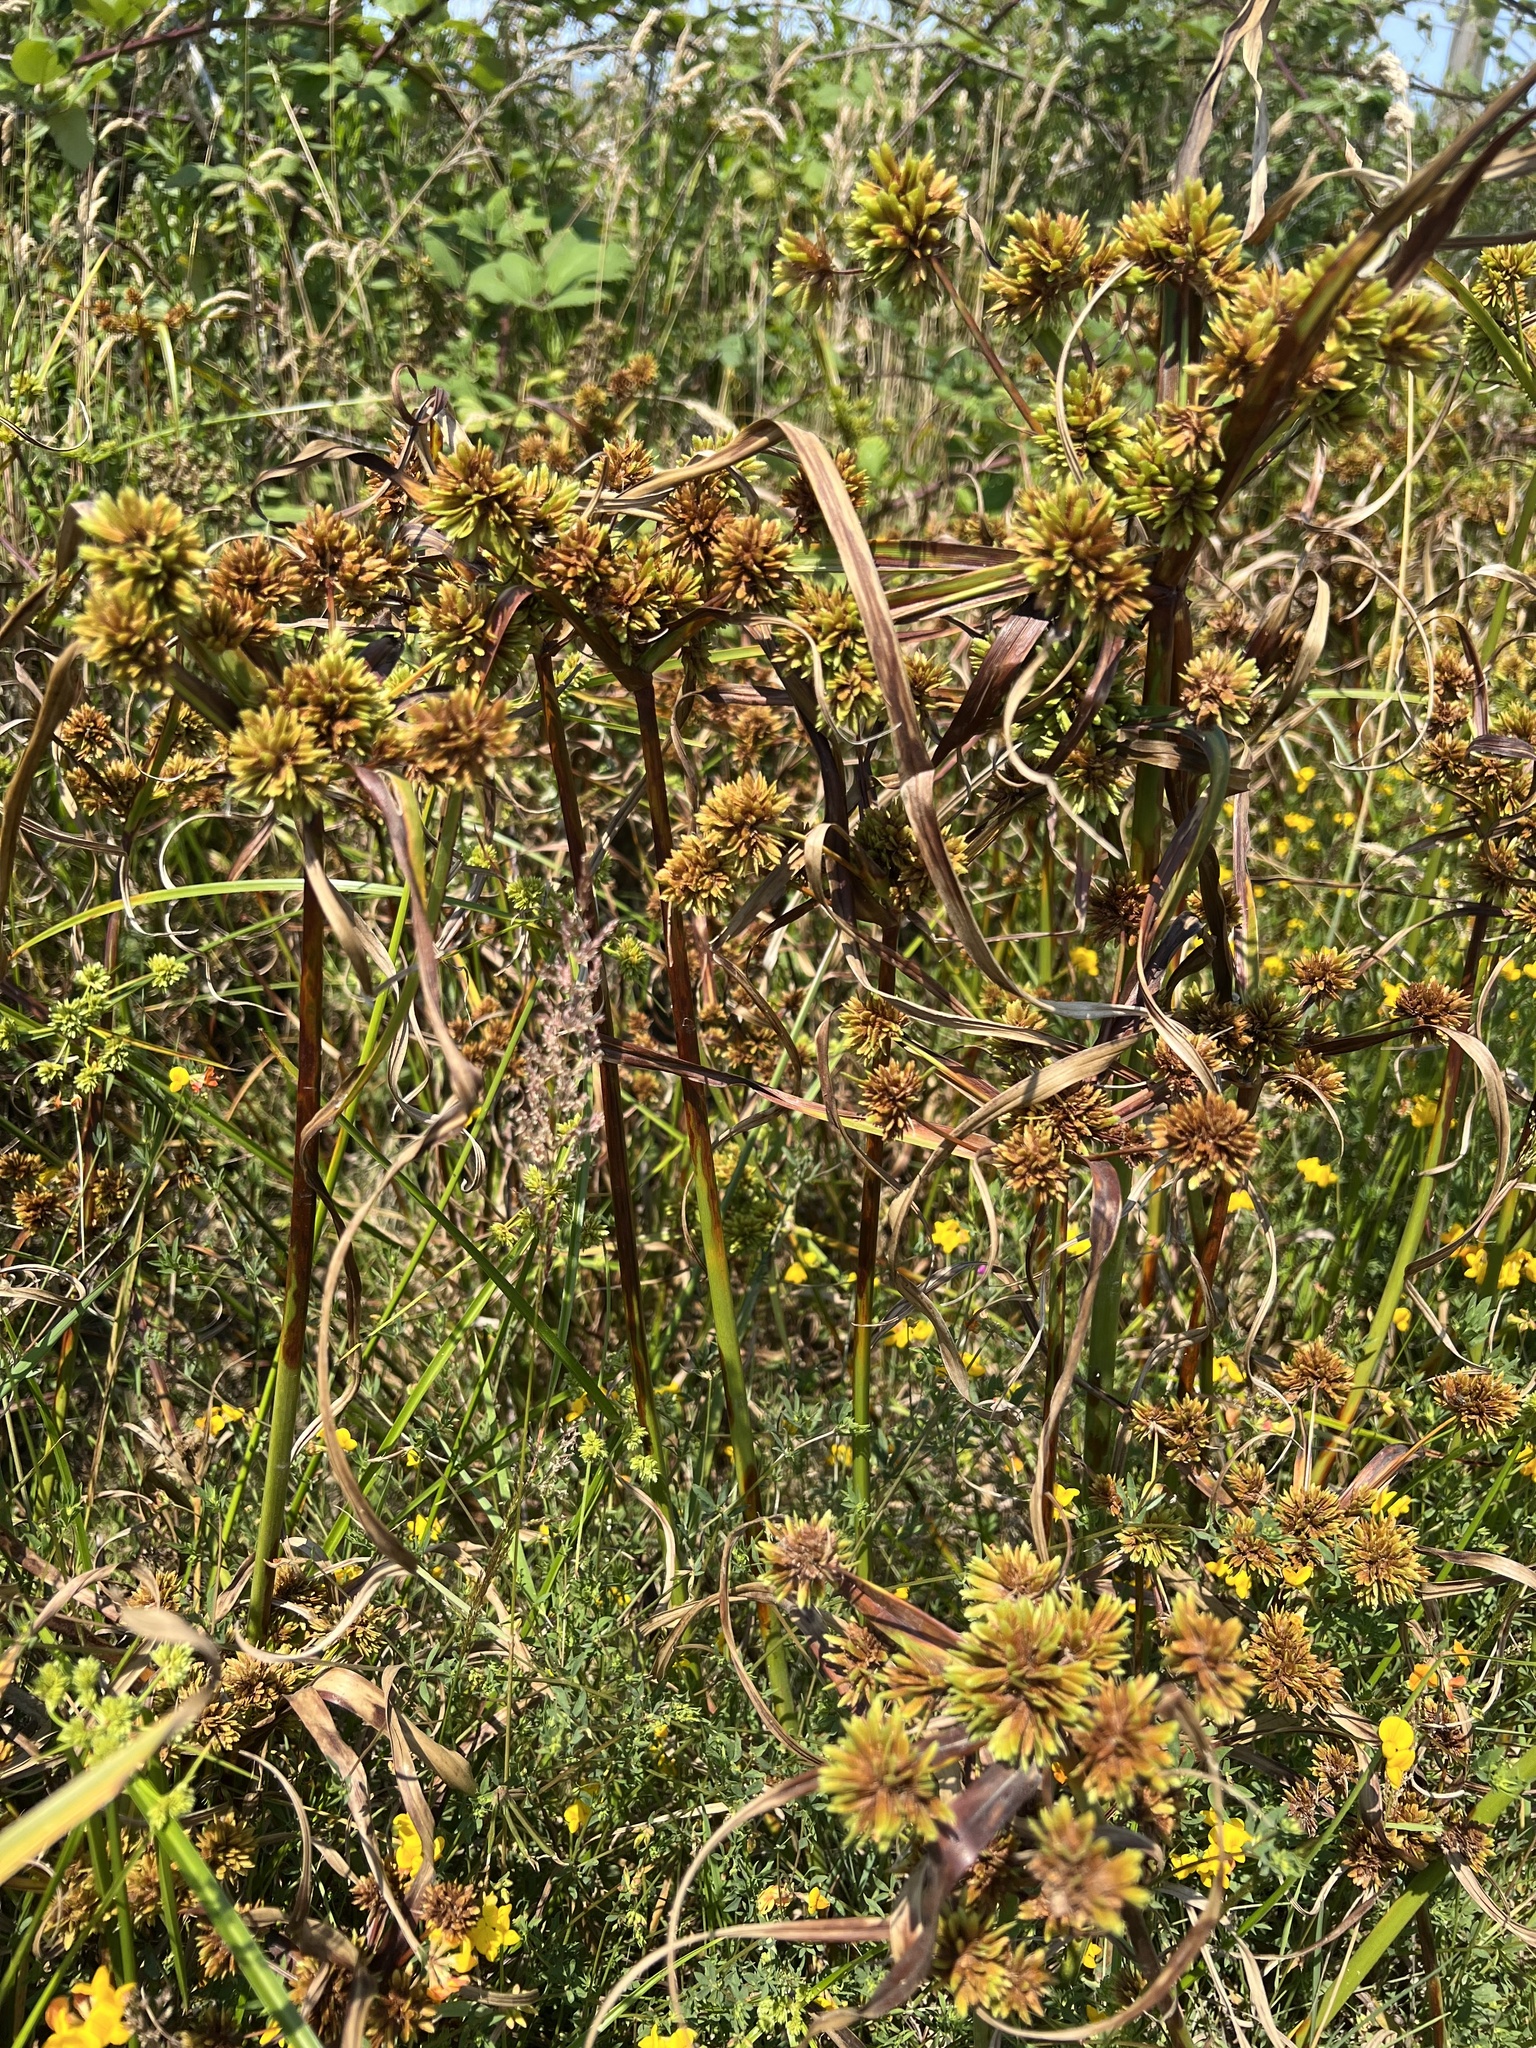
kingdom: Plantae
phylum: Tracheophyta
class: Liliopsida
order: Poales
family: Cyperaceae
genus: Cyperus
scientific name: Cyperus eragrostis
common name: Tall flatsedge
